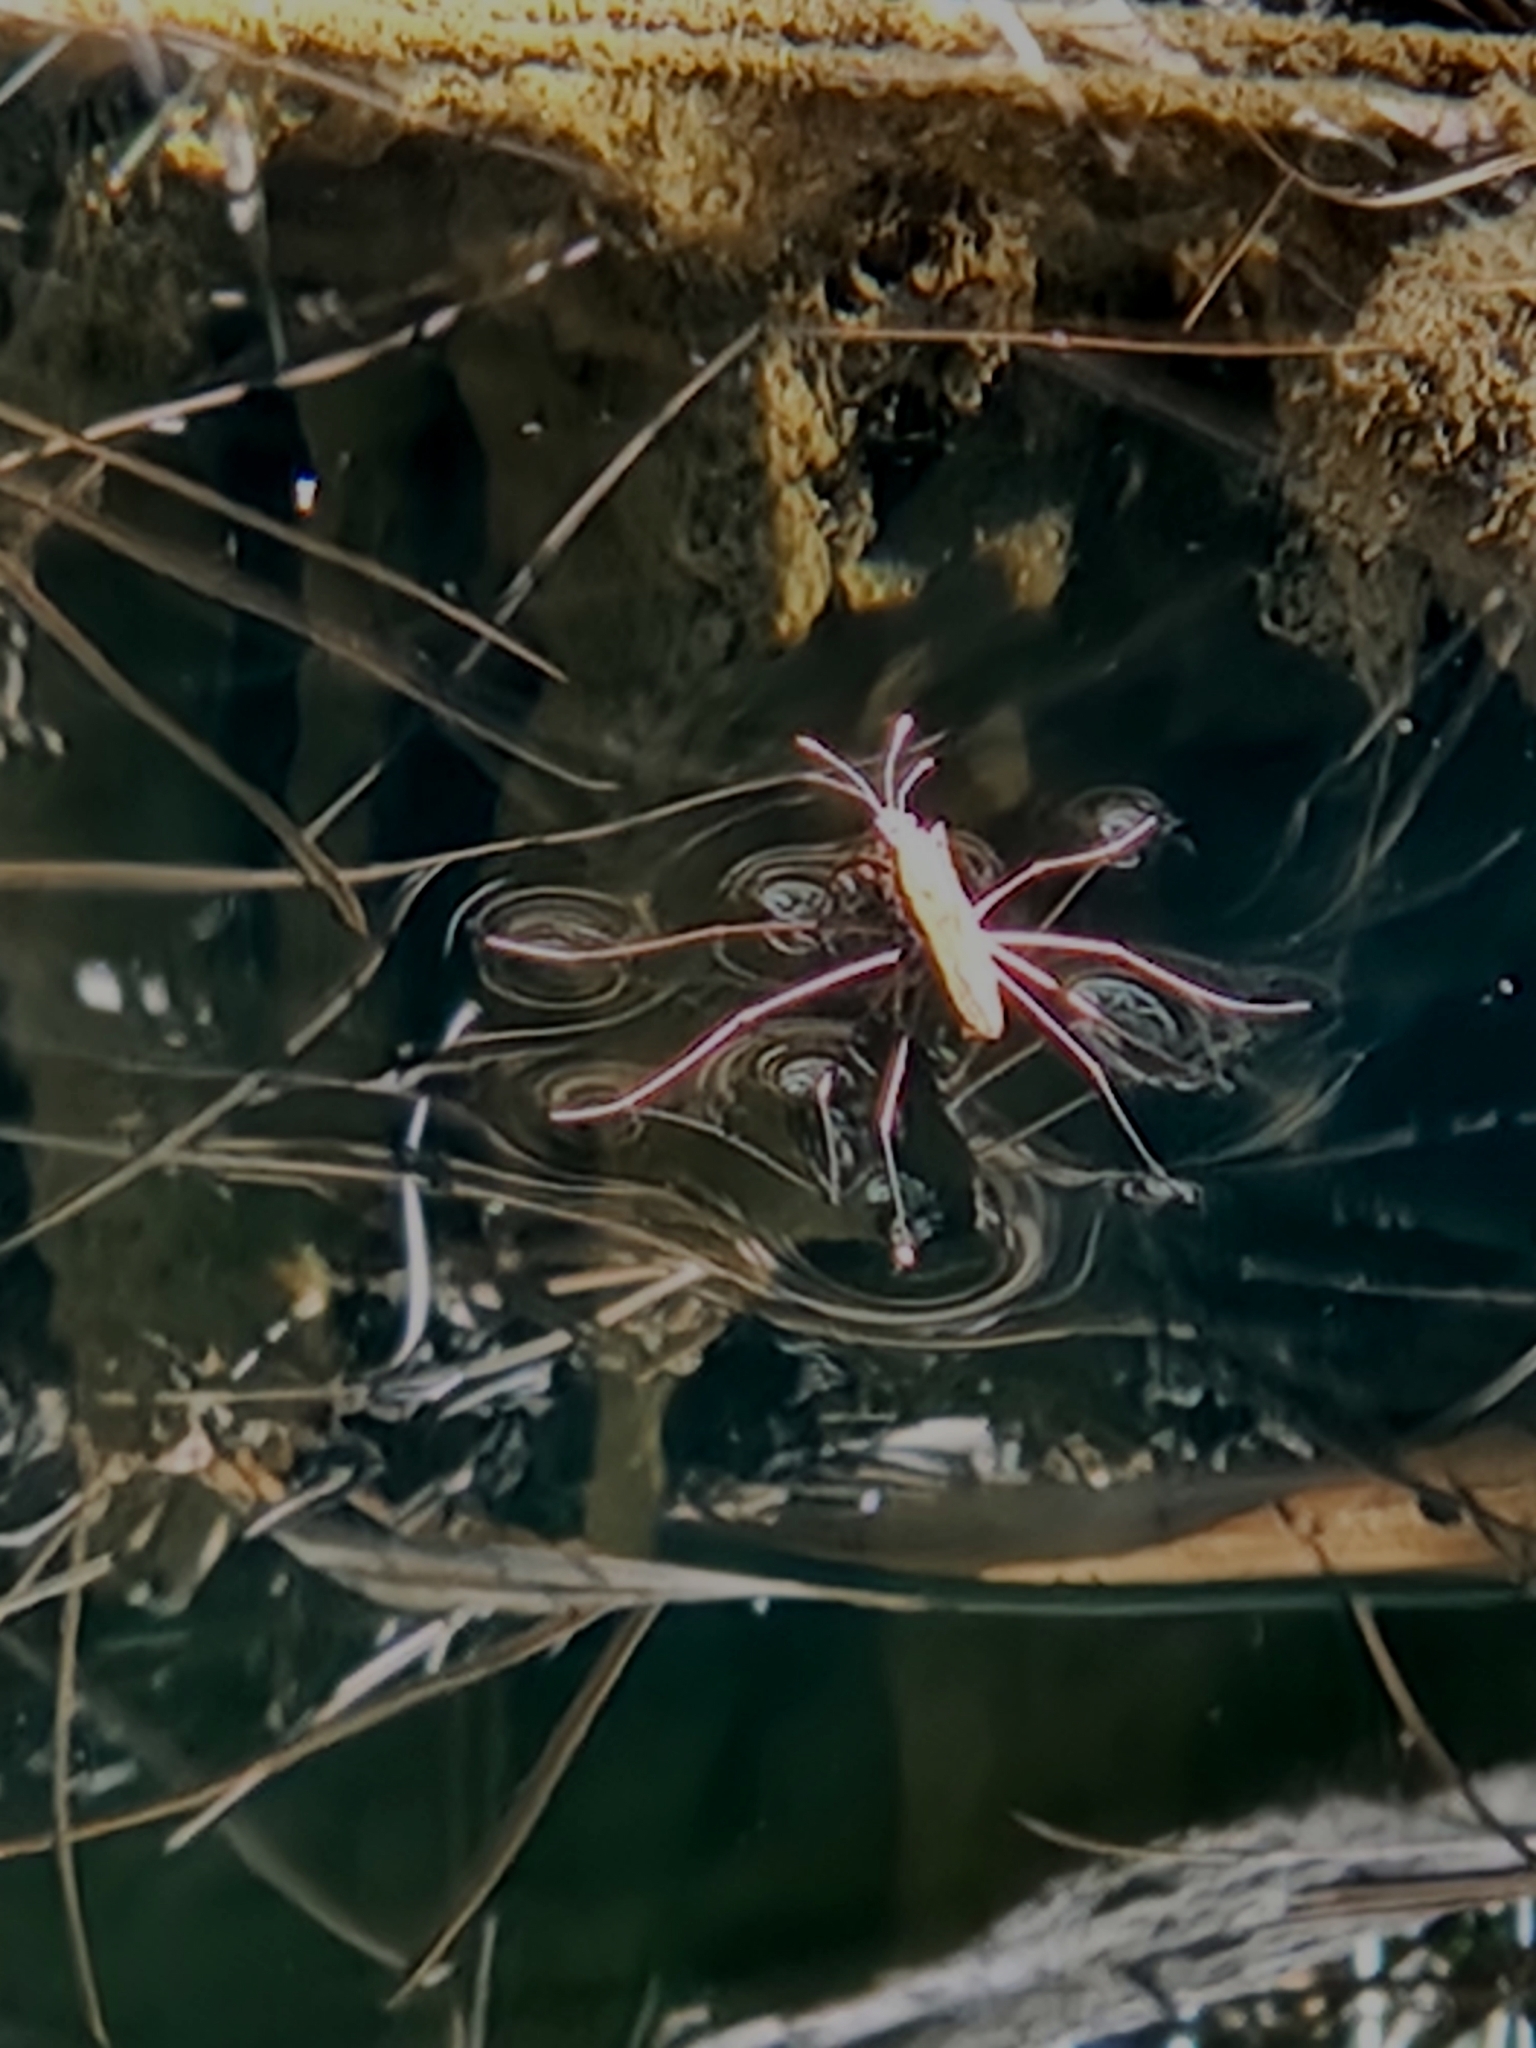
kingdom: Animalia
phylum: Arthropoda
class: Insecta
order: Hemiptera
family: Gerridae
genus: Aquarius
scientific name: Aquarius remigis
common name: Common water strider
